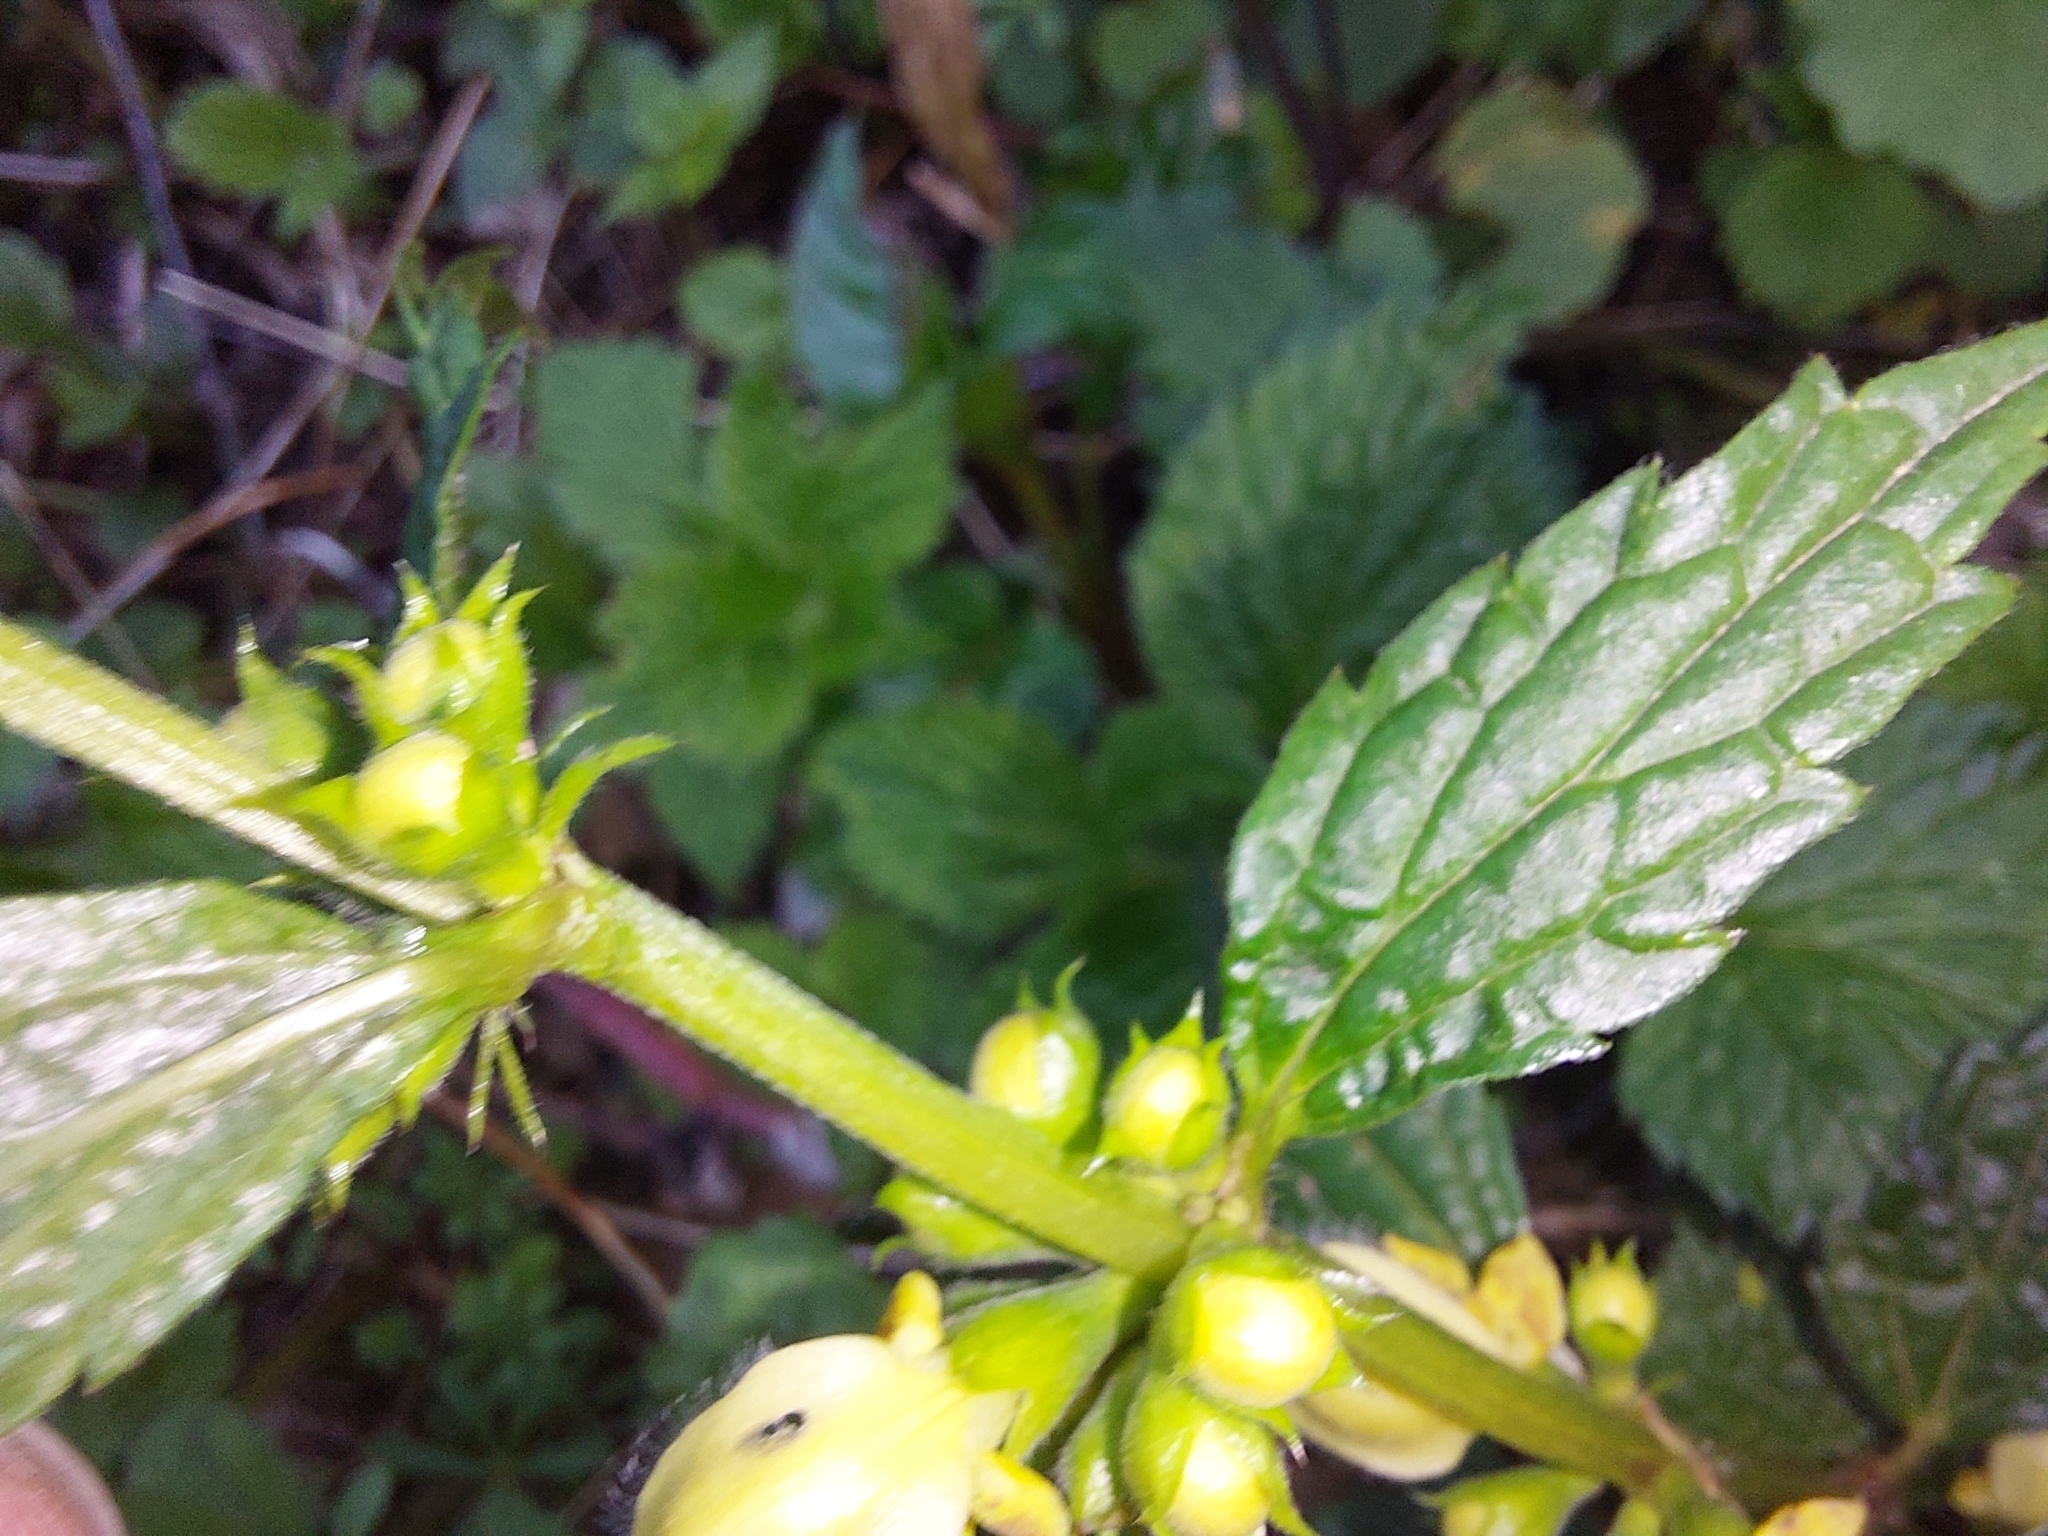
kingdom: Plantae
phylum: Tracheophyta
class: Magnoliopsida
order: Lamiales
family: Lamiaceae
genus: Lamium
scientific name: Lamium galeobdolon
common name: Yellow archangel
